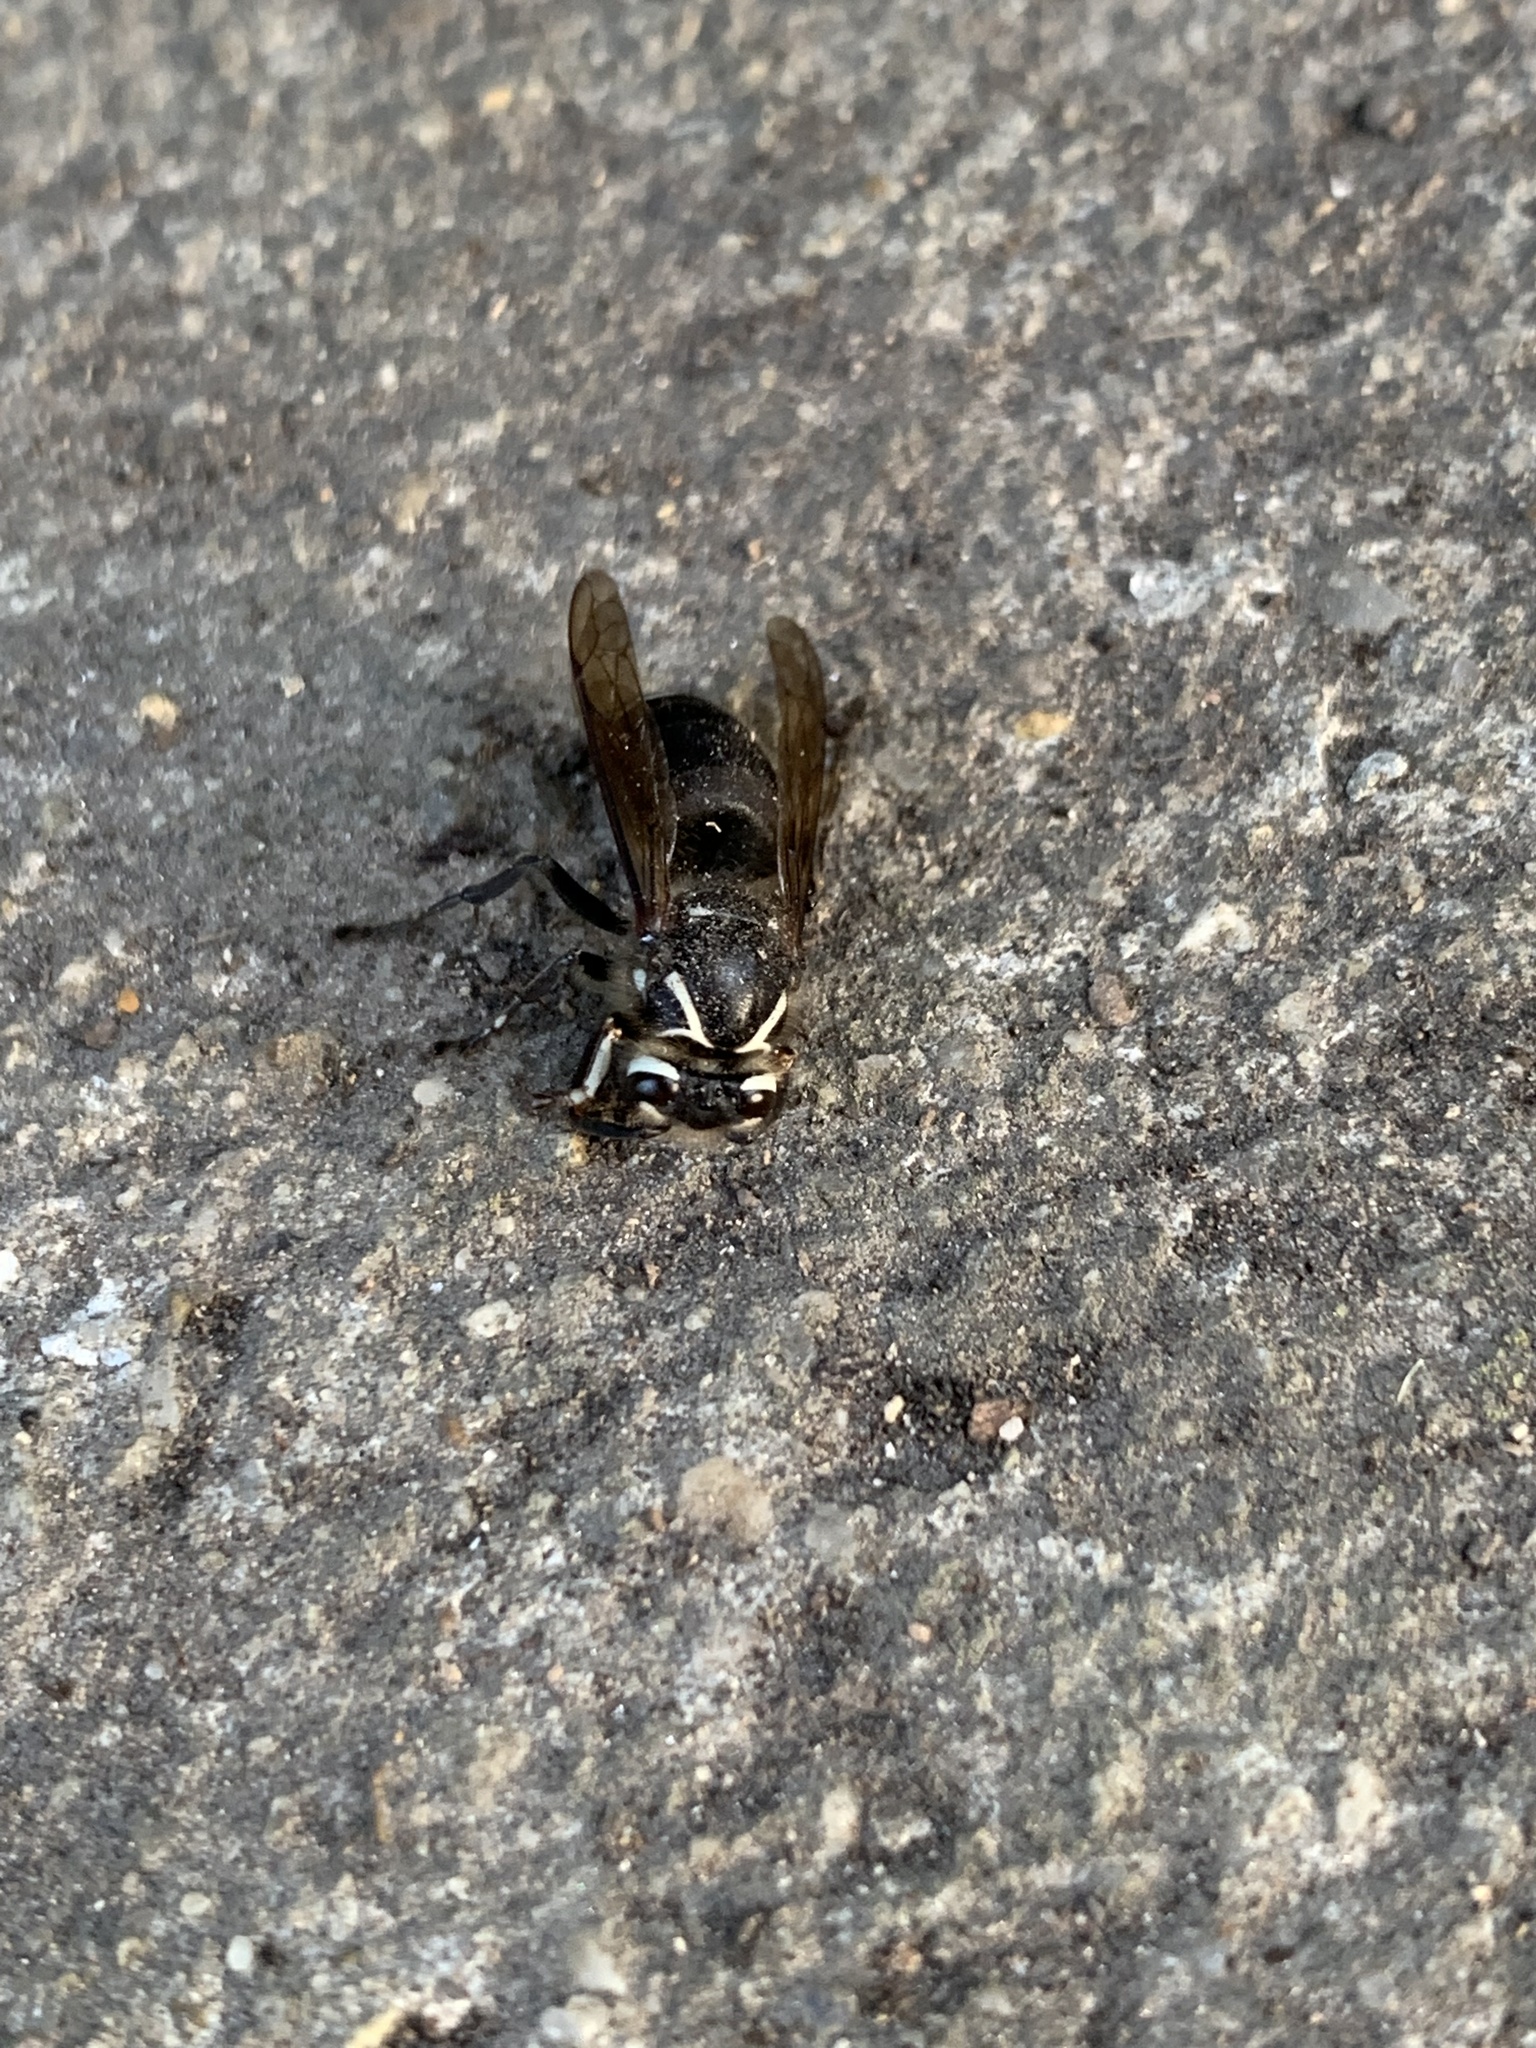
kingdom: Animalia
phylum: Arthropoda
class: Insecta
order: Hymenoptera
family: Vespidae
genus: Dolichovespula
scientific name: Dolichovespula maculata
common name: Bald-faced hornet
